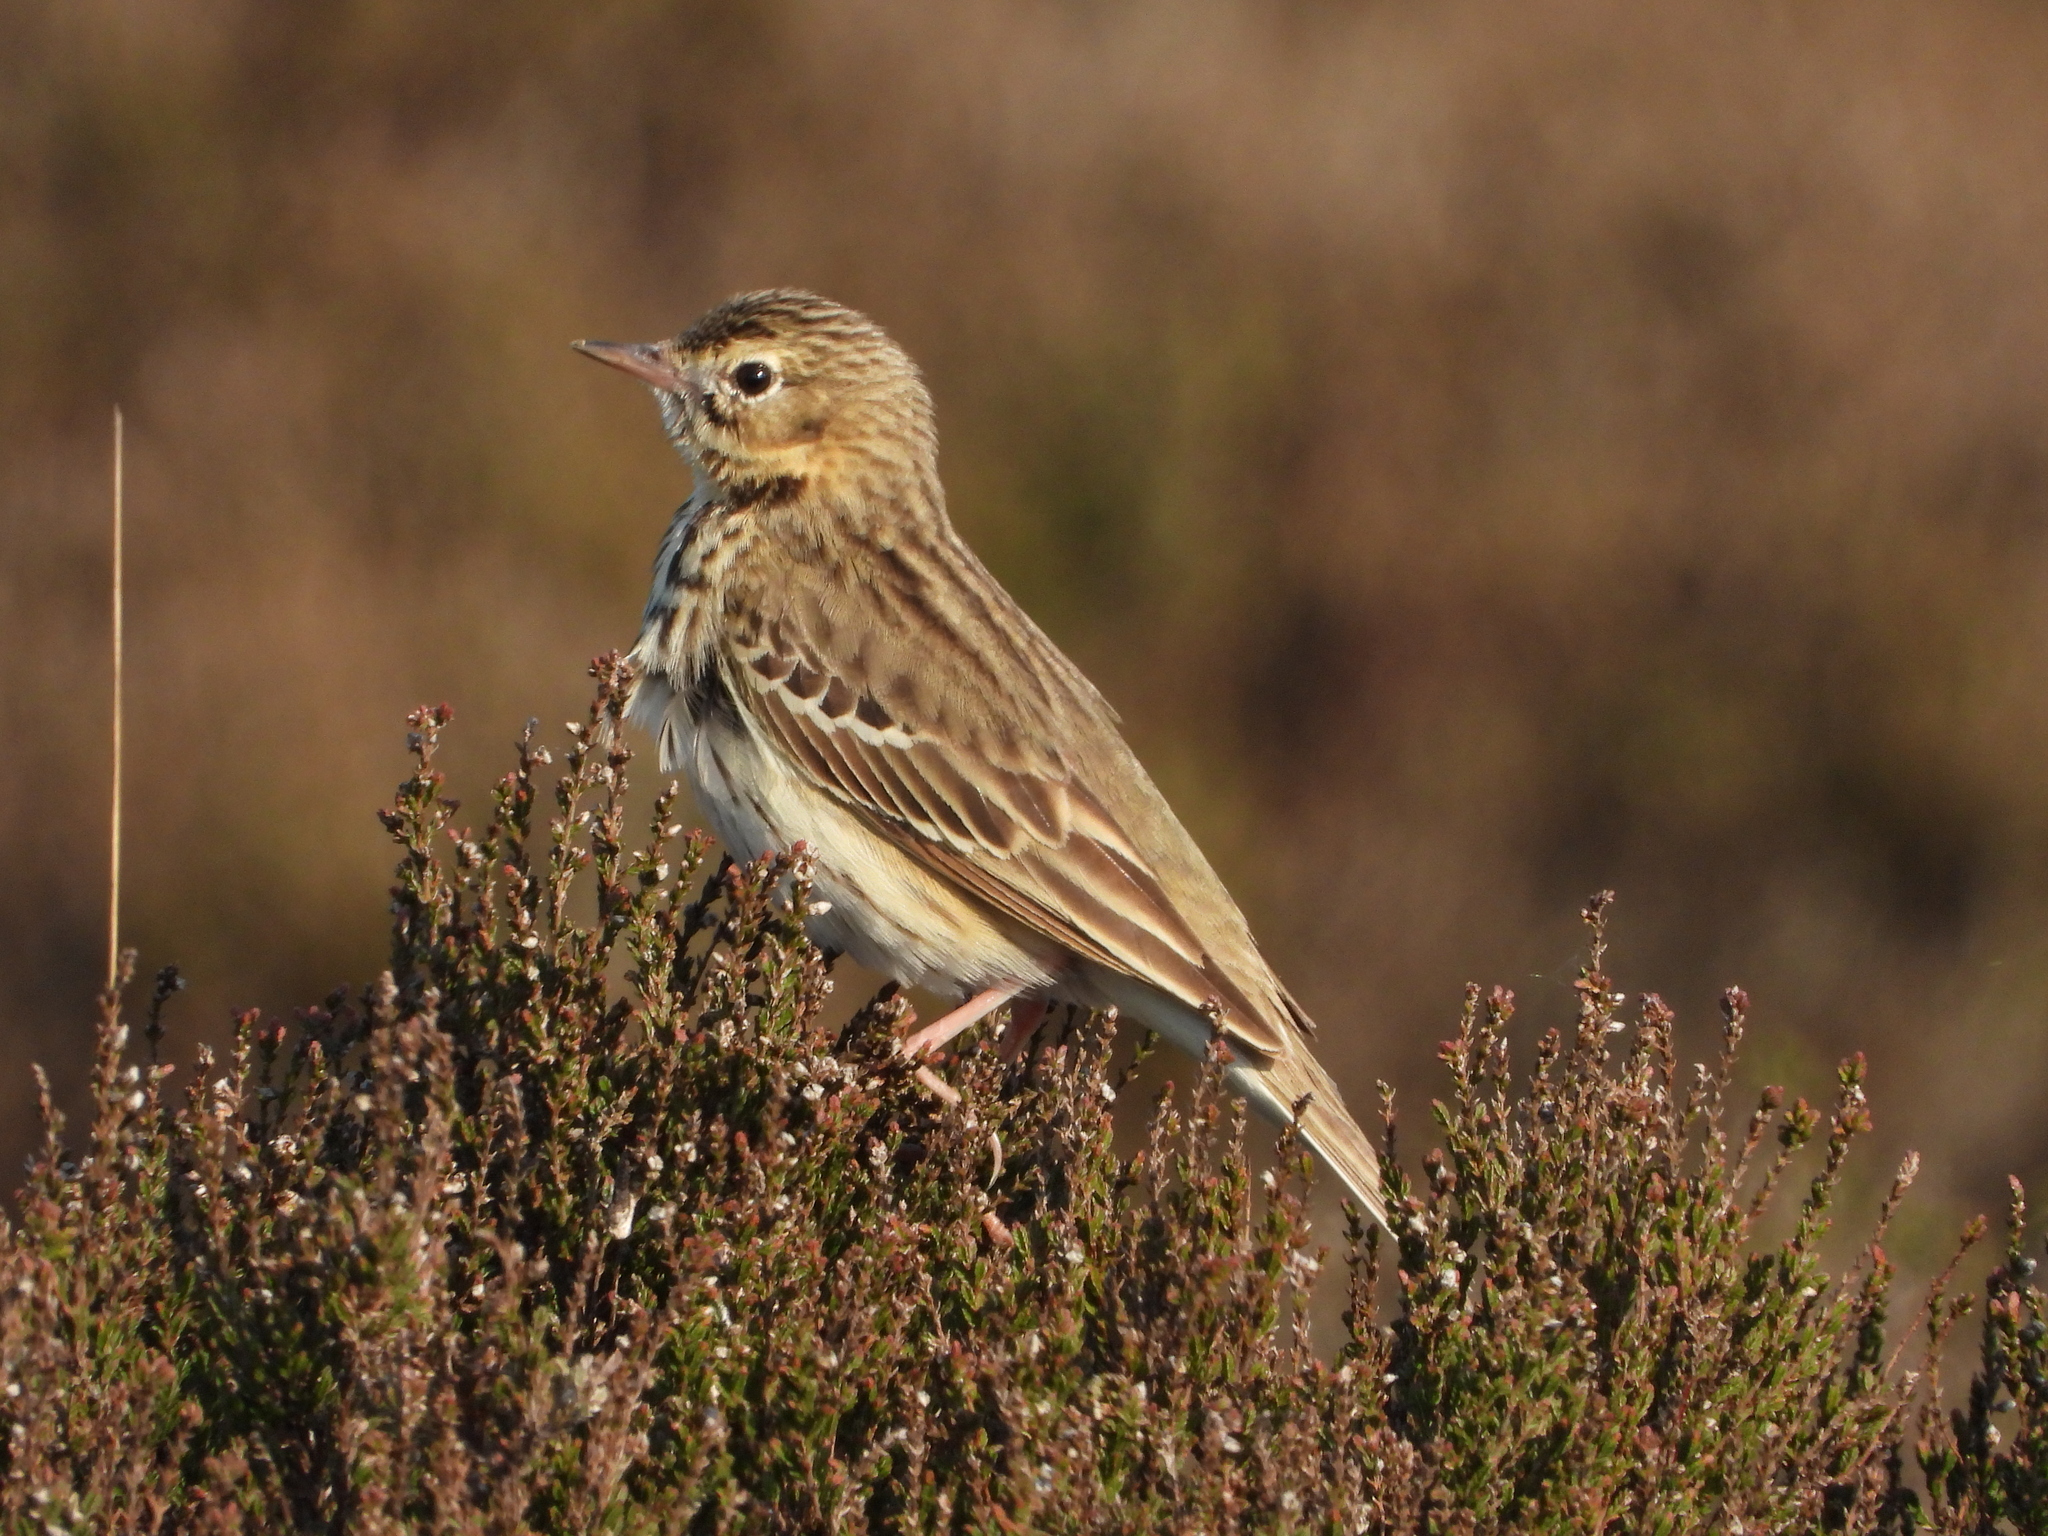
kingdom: Animalia
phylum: Chordata
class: Aves
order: Passeriformes
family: Motacillidae
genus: Anthus
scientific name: Anthus trivialis
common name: Tree pipit
